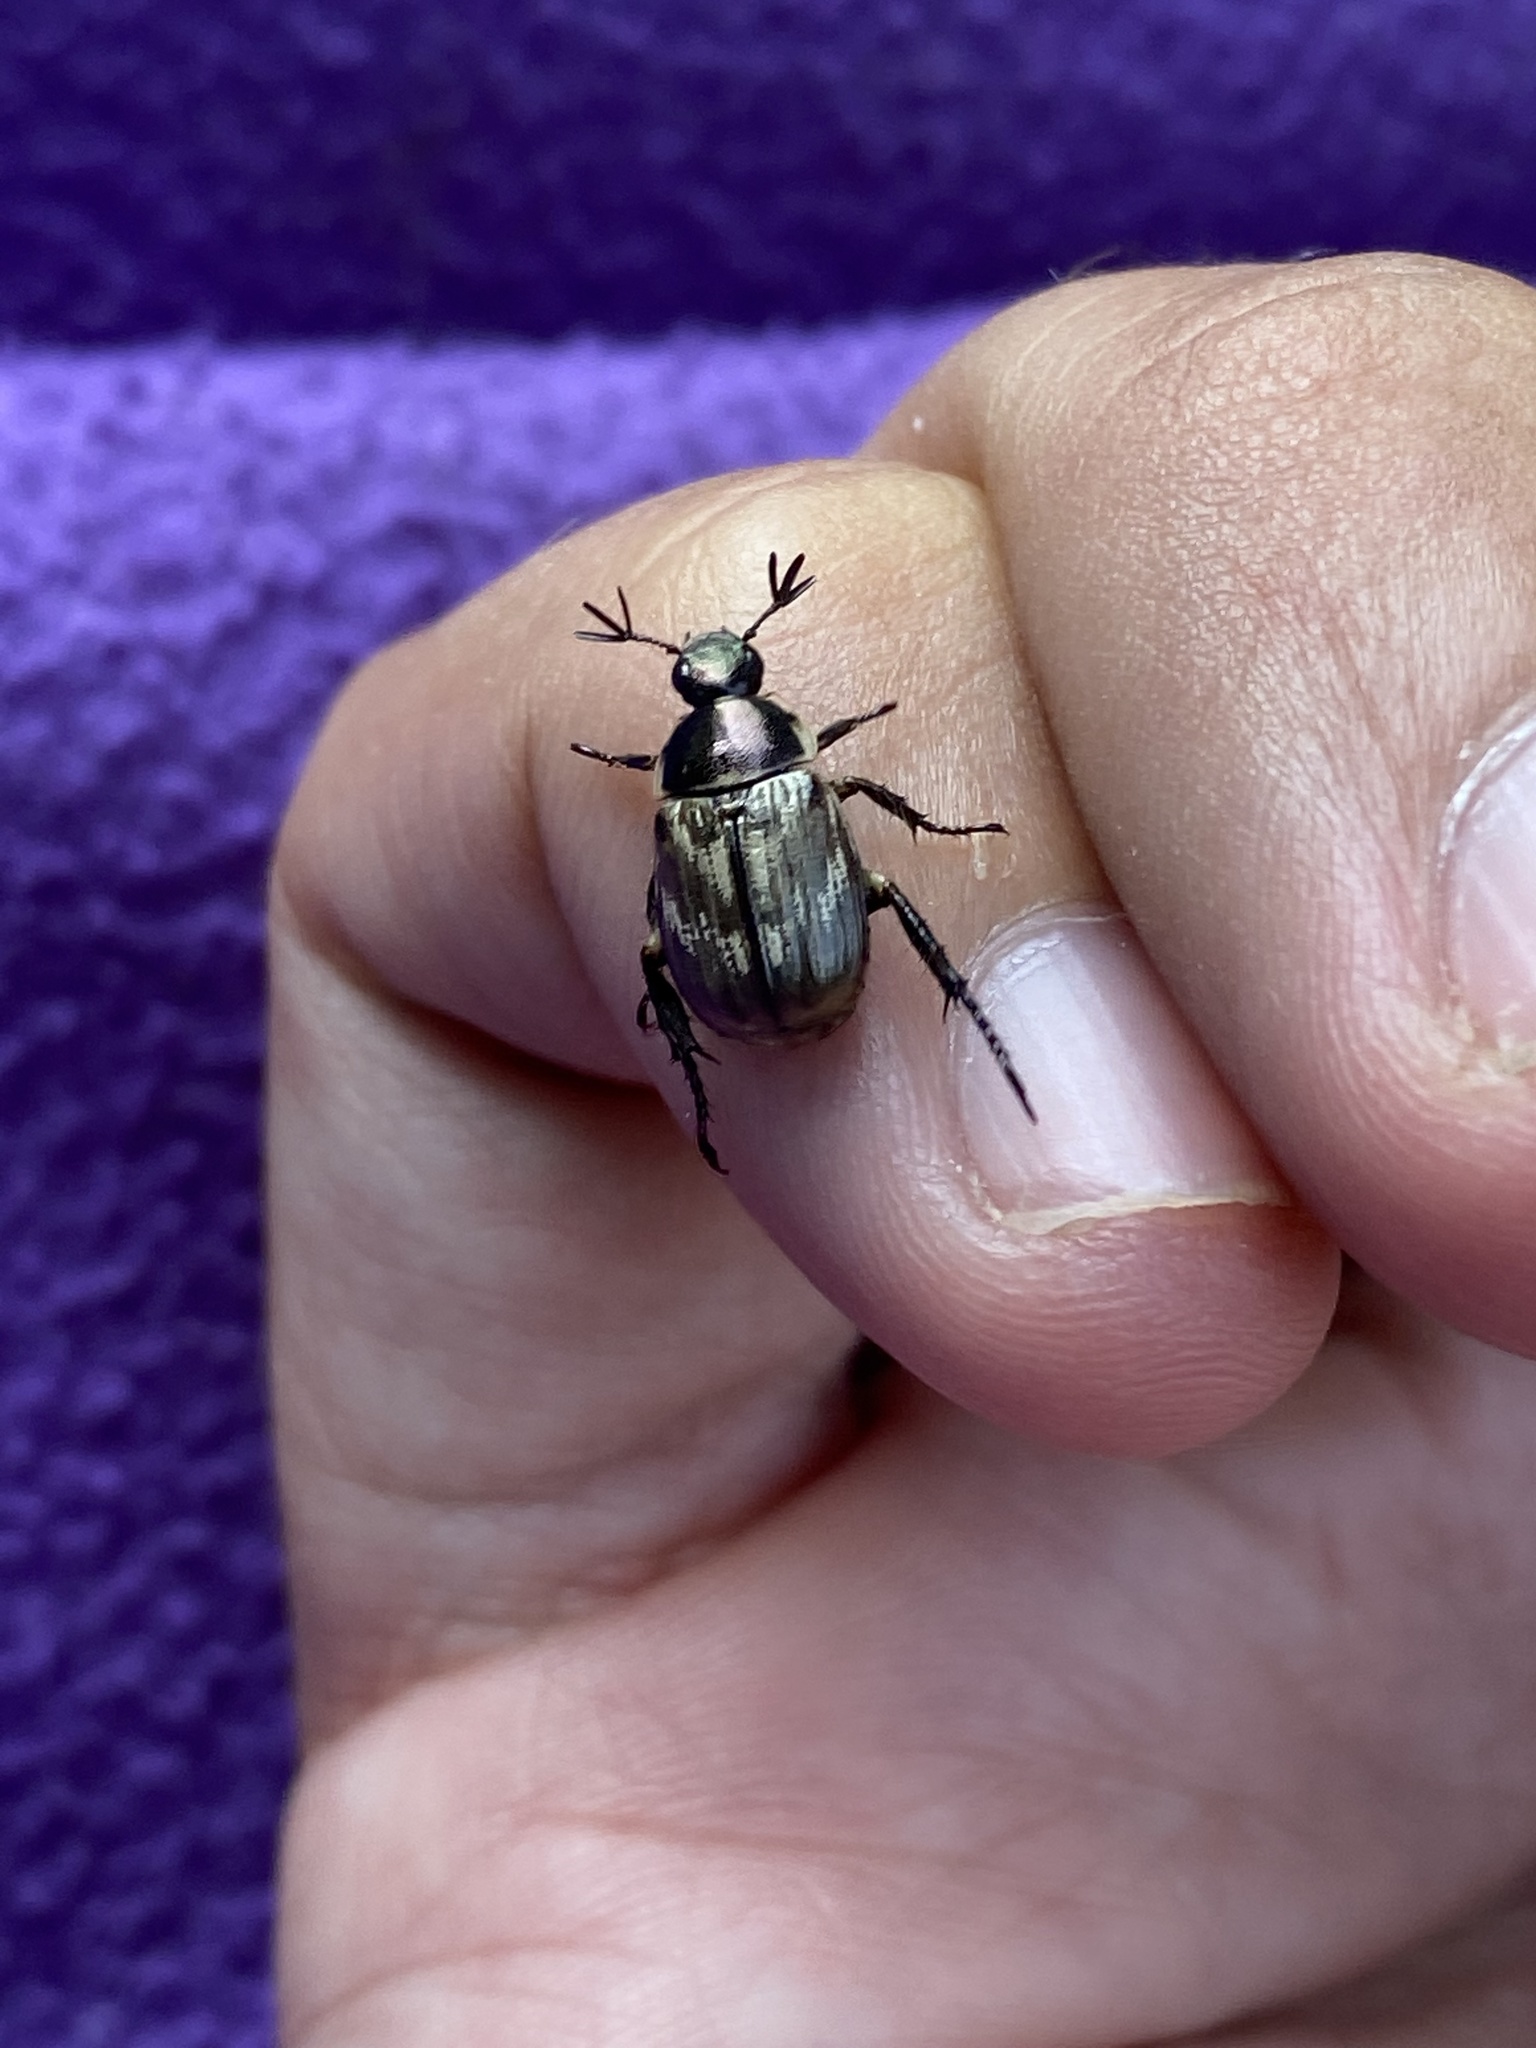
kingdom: Animalia
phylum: Arthropoda
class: Insecta
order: Coleoptera
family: Scarabaeidae
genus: Exomala
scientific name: Exomala orientalis
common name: Oriental beetle
